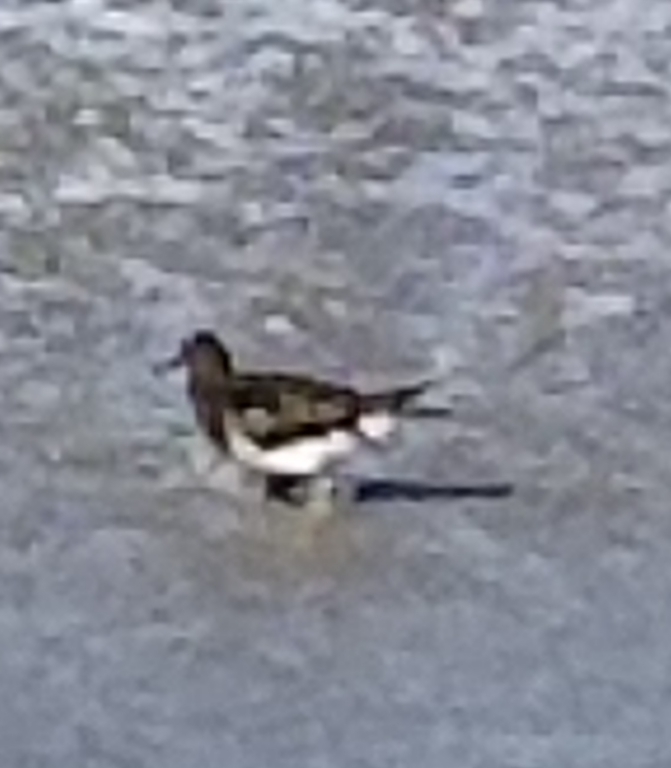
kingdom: Animalia
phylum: Chordata
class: Aves
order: Charadriiformes
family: Scolopacidae
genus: Arenaria
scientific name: Arenaria melanocephala
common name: Black turnstone
